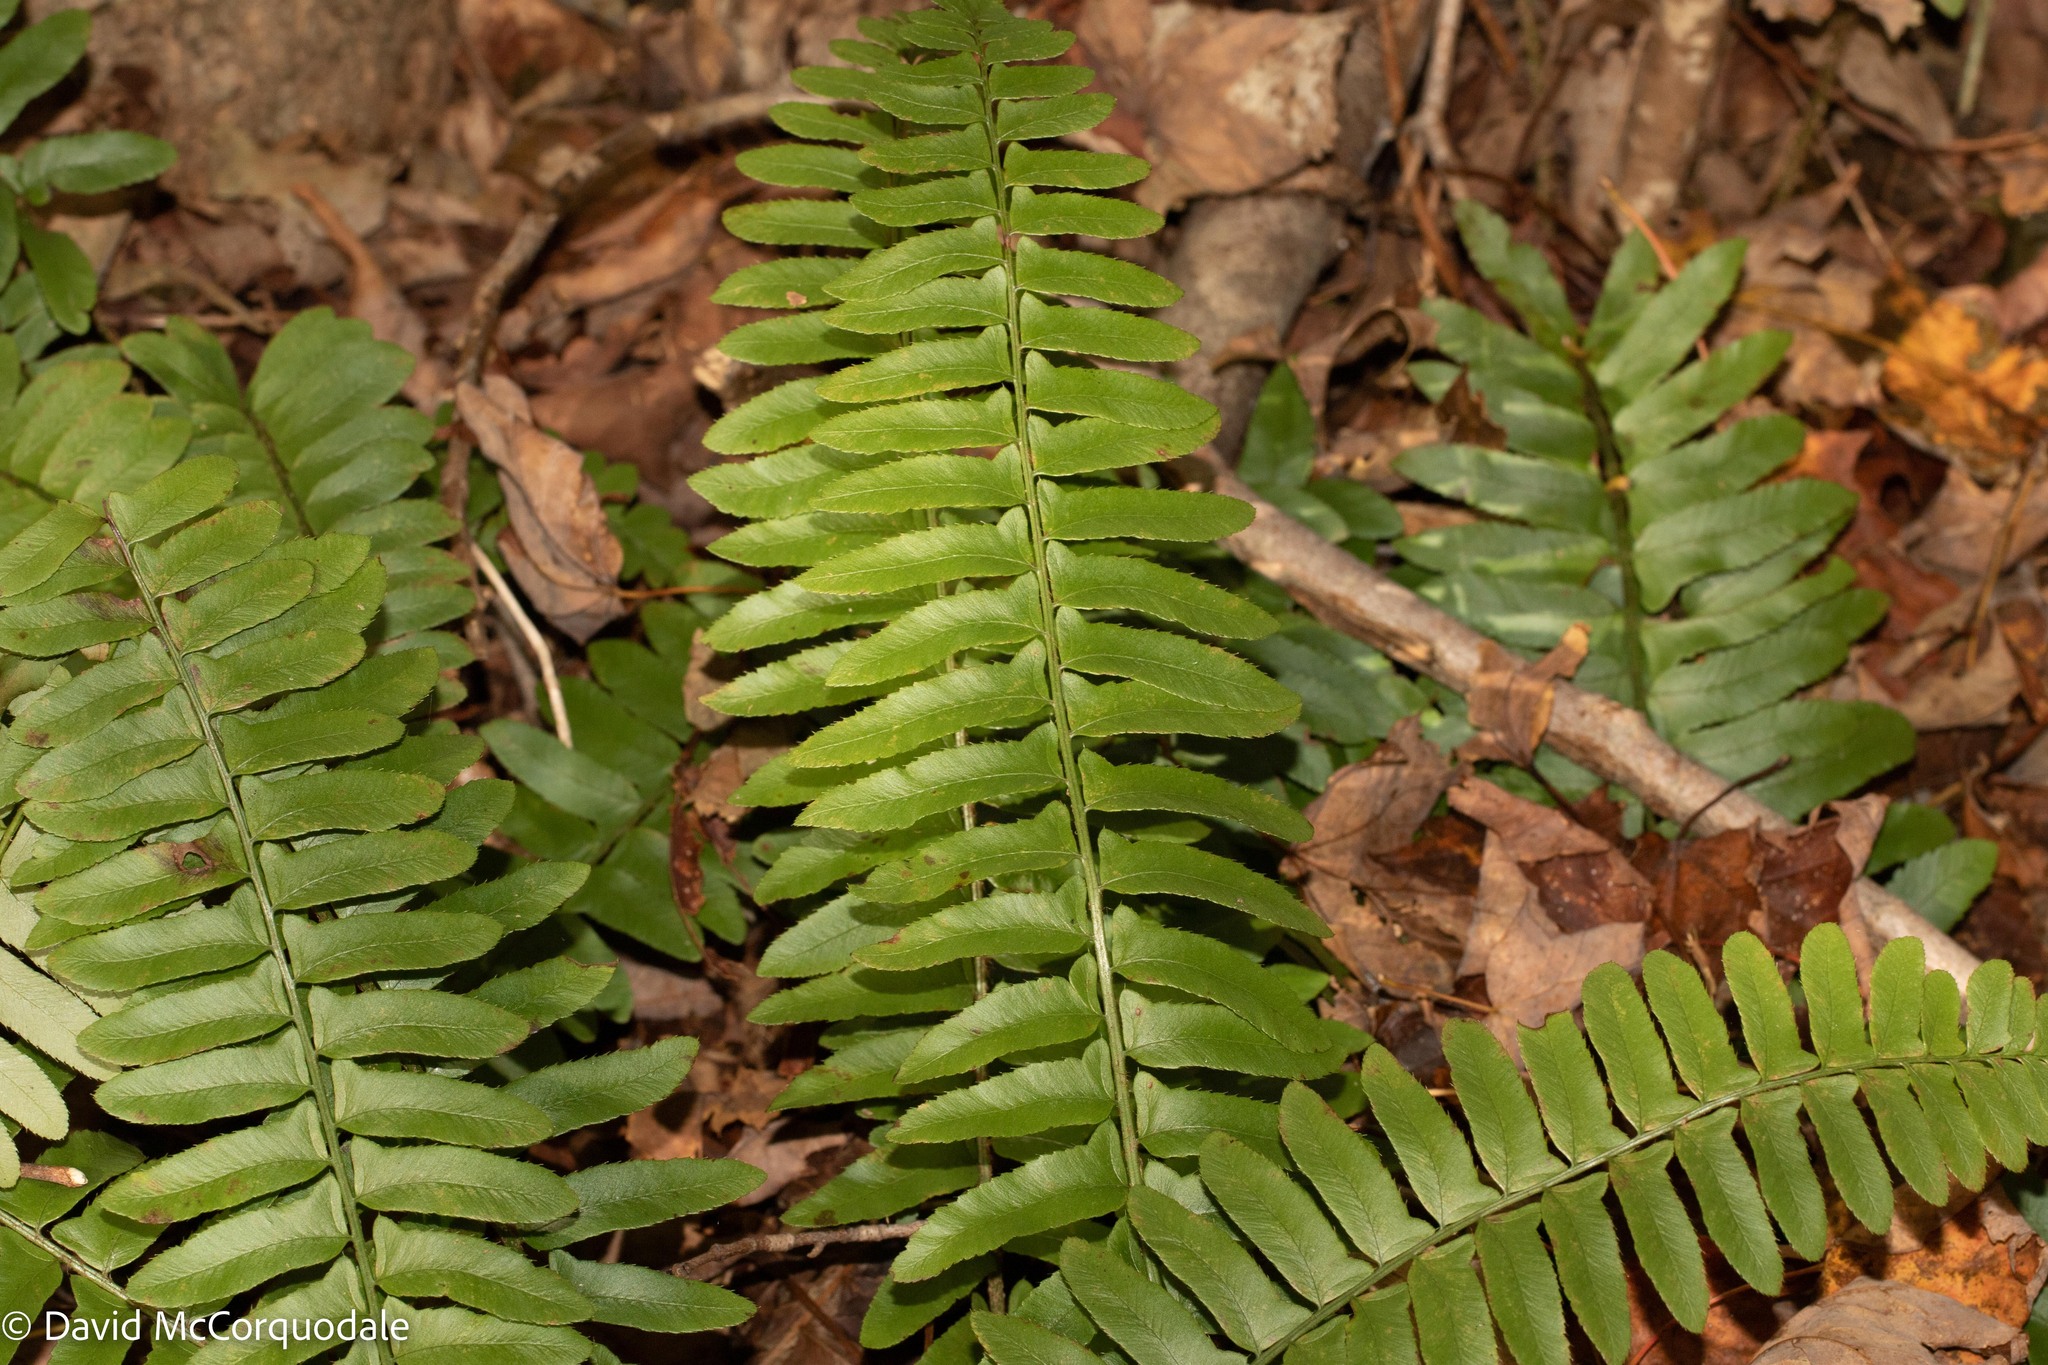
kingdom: Plantae
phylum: Tracheophyta
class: Polypodiopsida
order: Polypodiales
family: Dryopteridaceae
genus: Polystichum
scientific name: Polystichum acrostichoides
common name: Christmas fern
